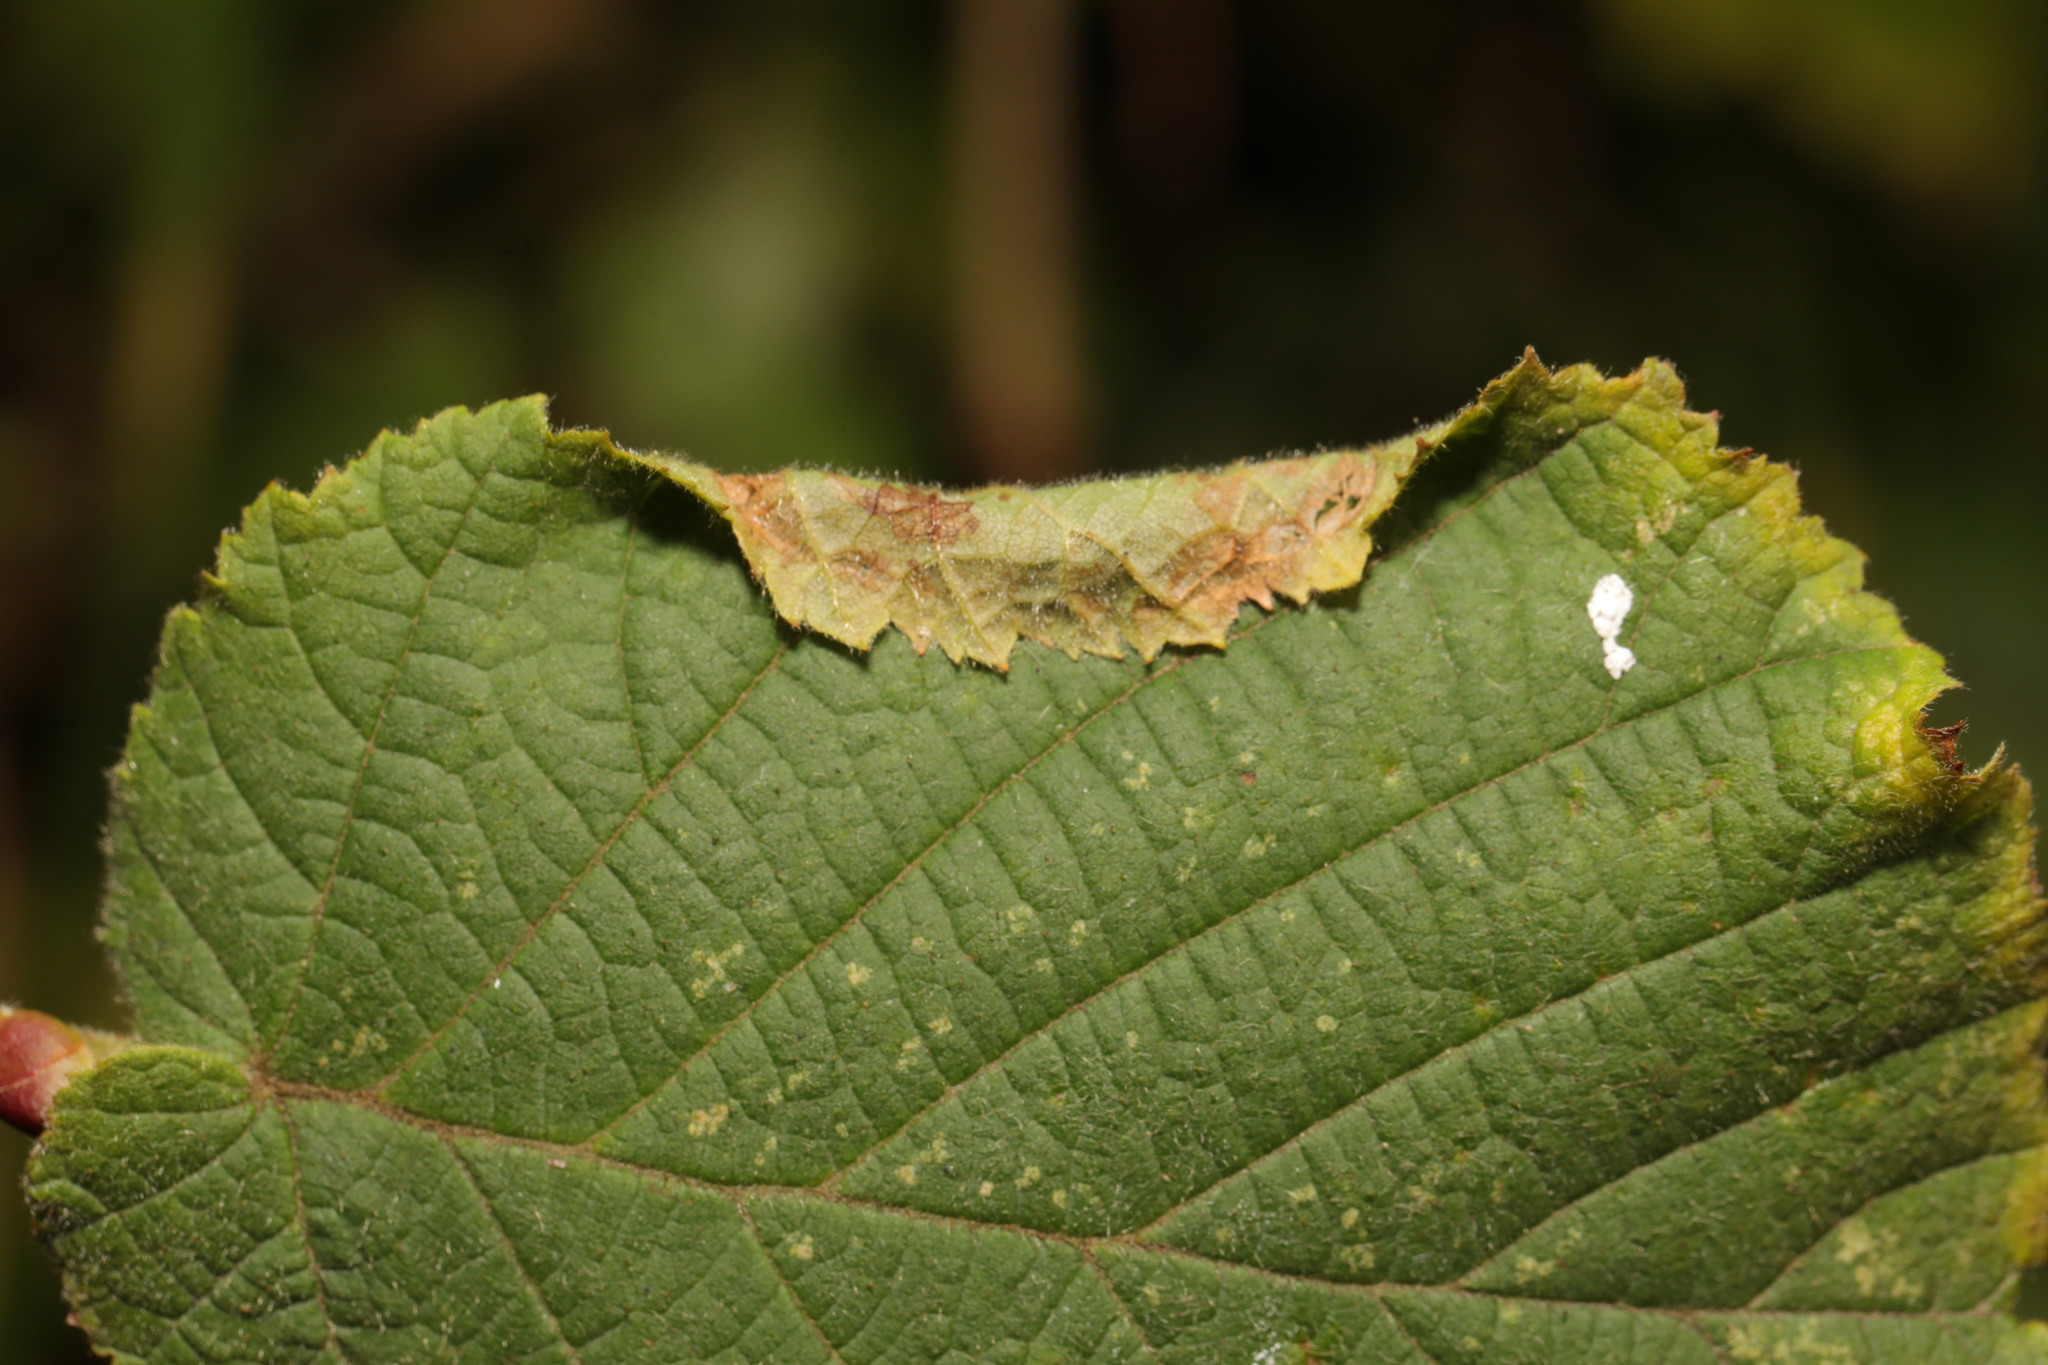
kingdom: Animalia
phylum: Arthropoda
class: Insecta
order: Lepidoptera
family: Gracillariidae
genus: Parornix
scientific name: Parornix devoniella
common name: Hazel slender
